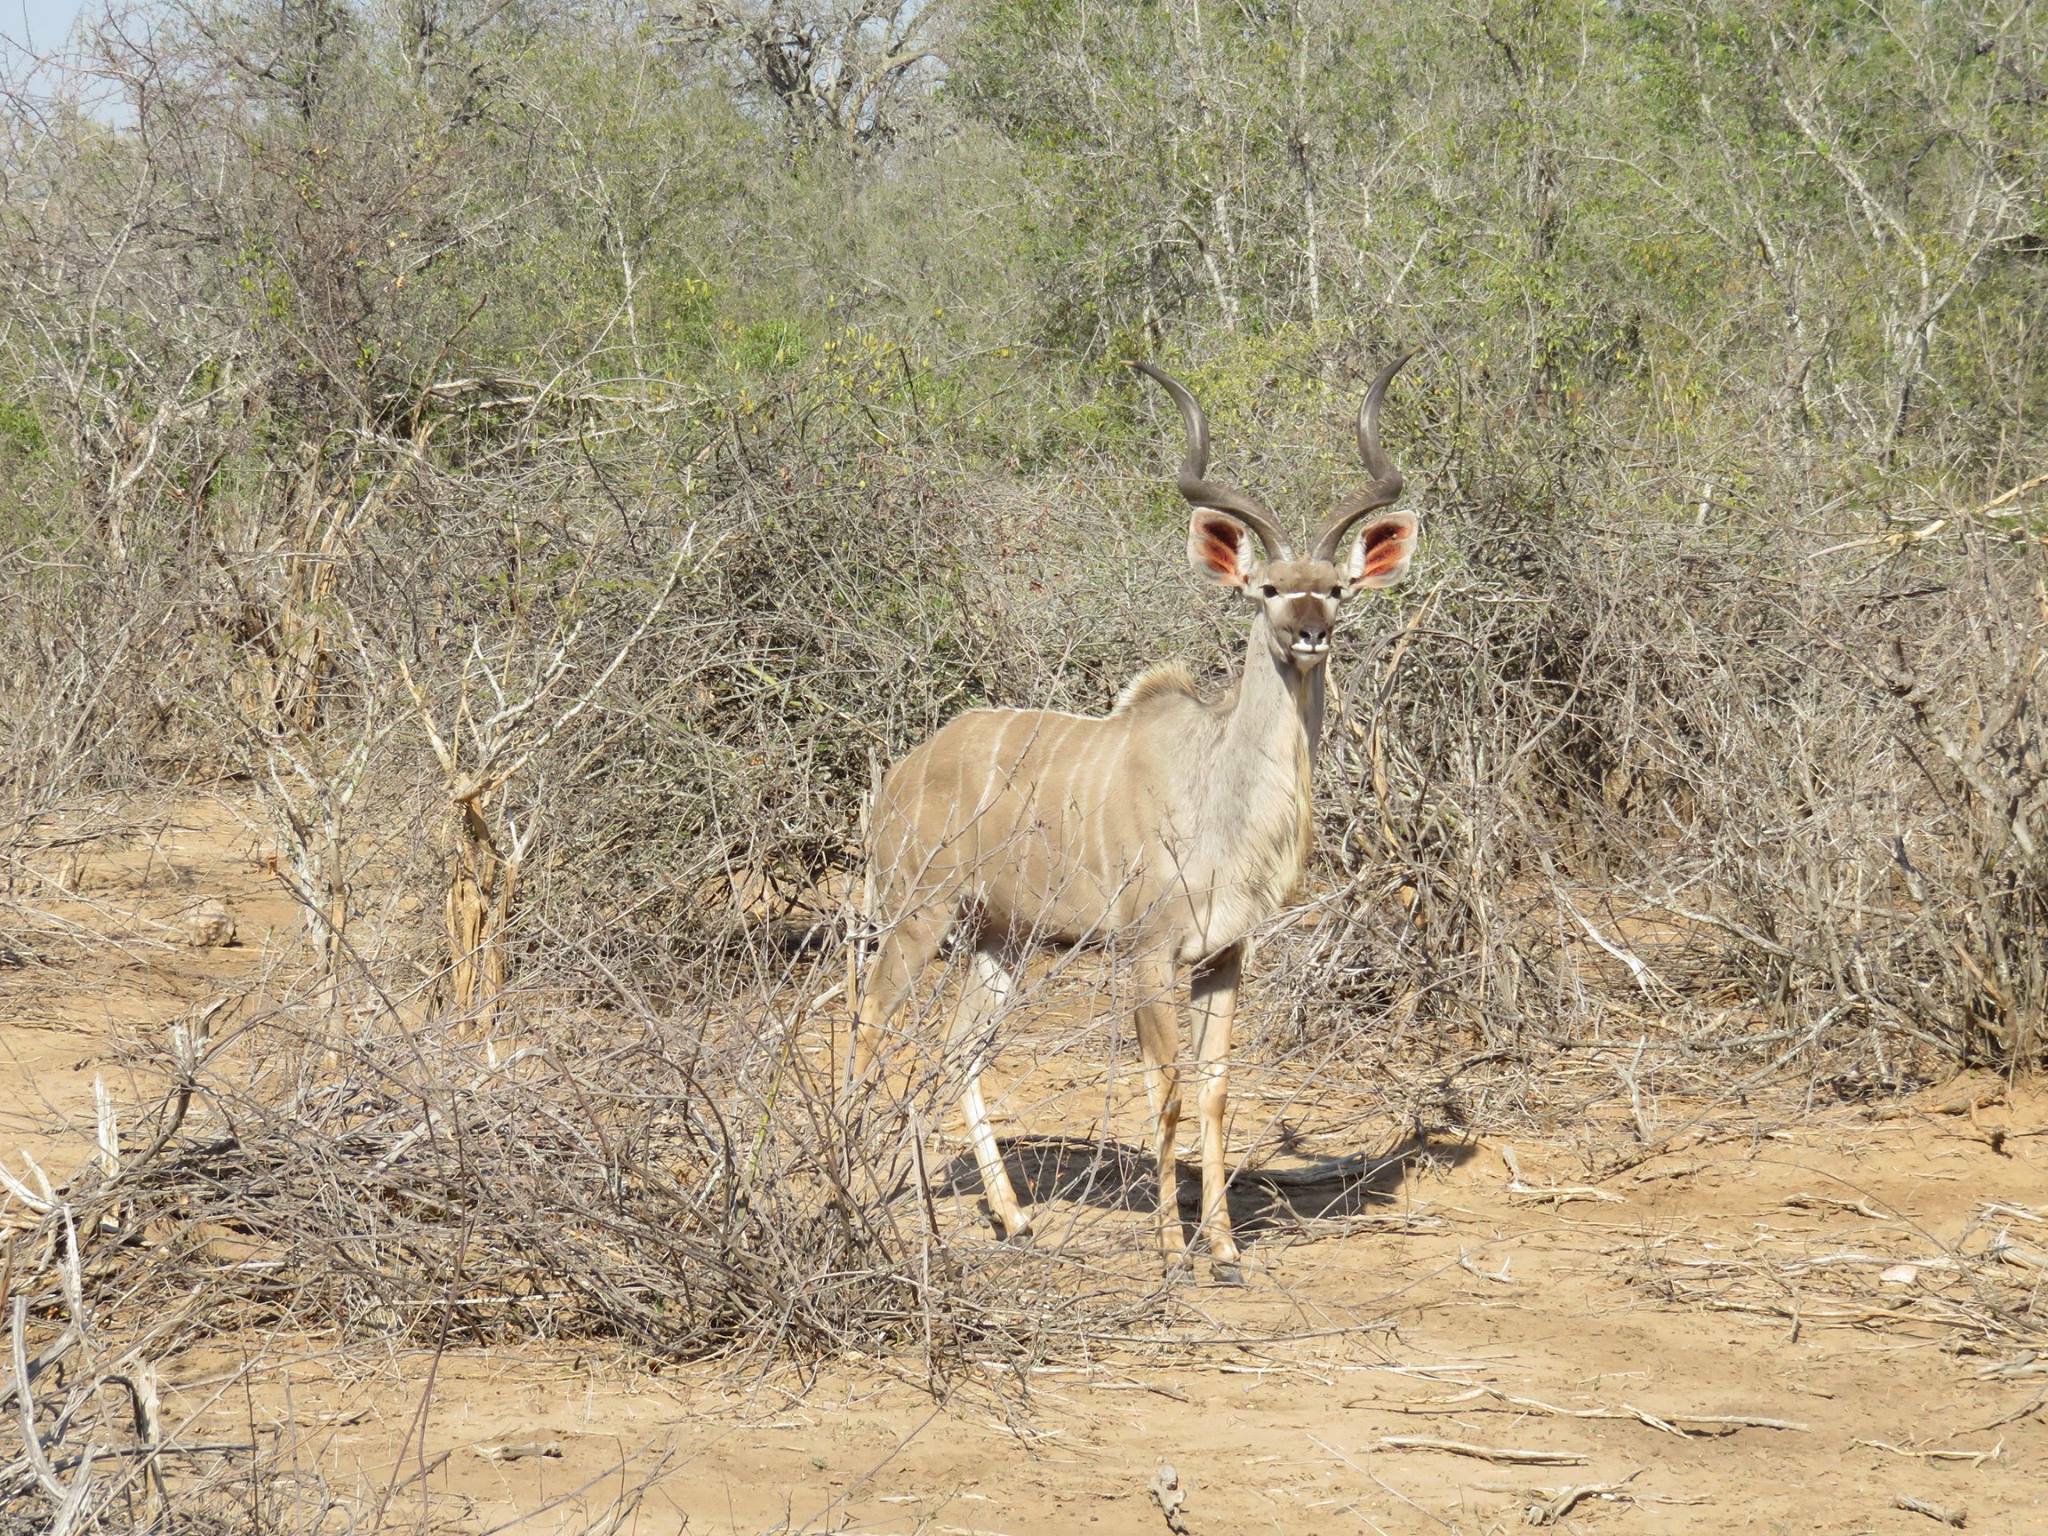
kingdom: Animalia
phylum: Chordata
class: Mammalia
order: Artiodactyla
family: Bovidae
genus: Tragelaphus
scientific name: Tragelaphus strepsiceros
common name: Greater kudu
